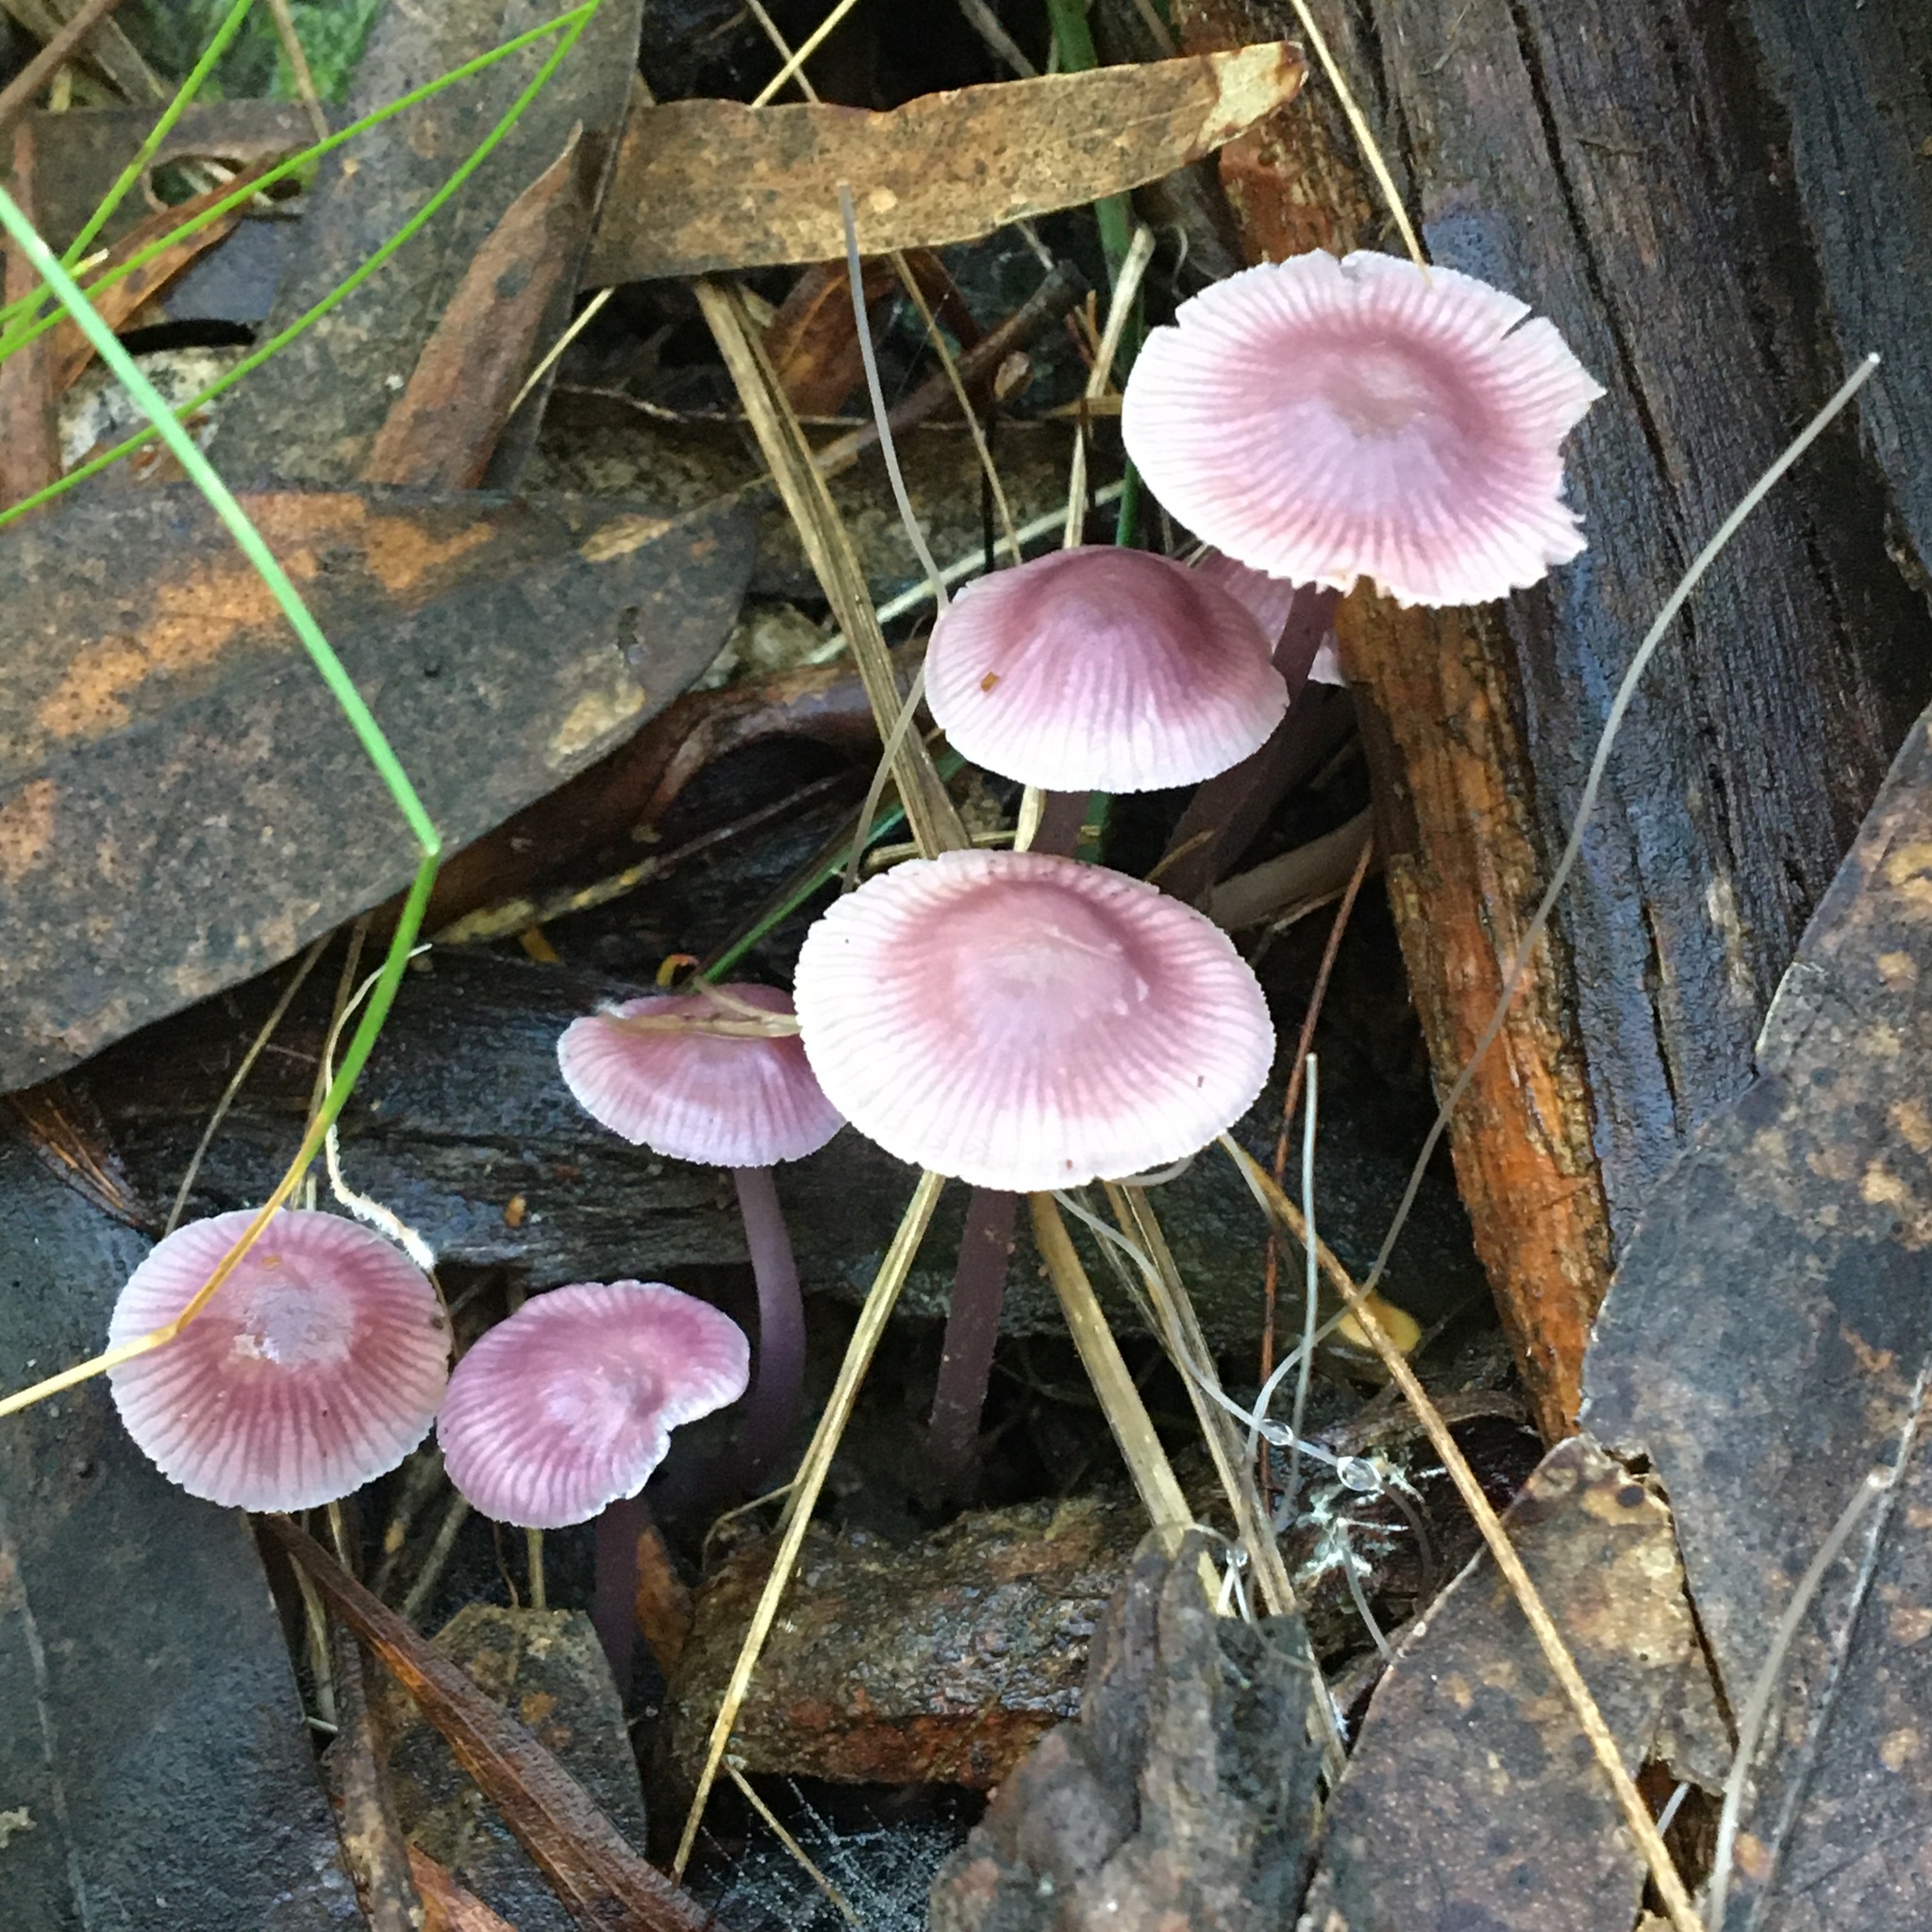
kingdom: Fungi
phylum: Basidiomycota
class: Agaricomycetes
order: Agaricales
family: Mycenaceae
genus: Mycena
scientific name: Mycena vinacea
